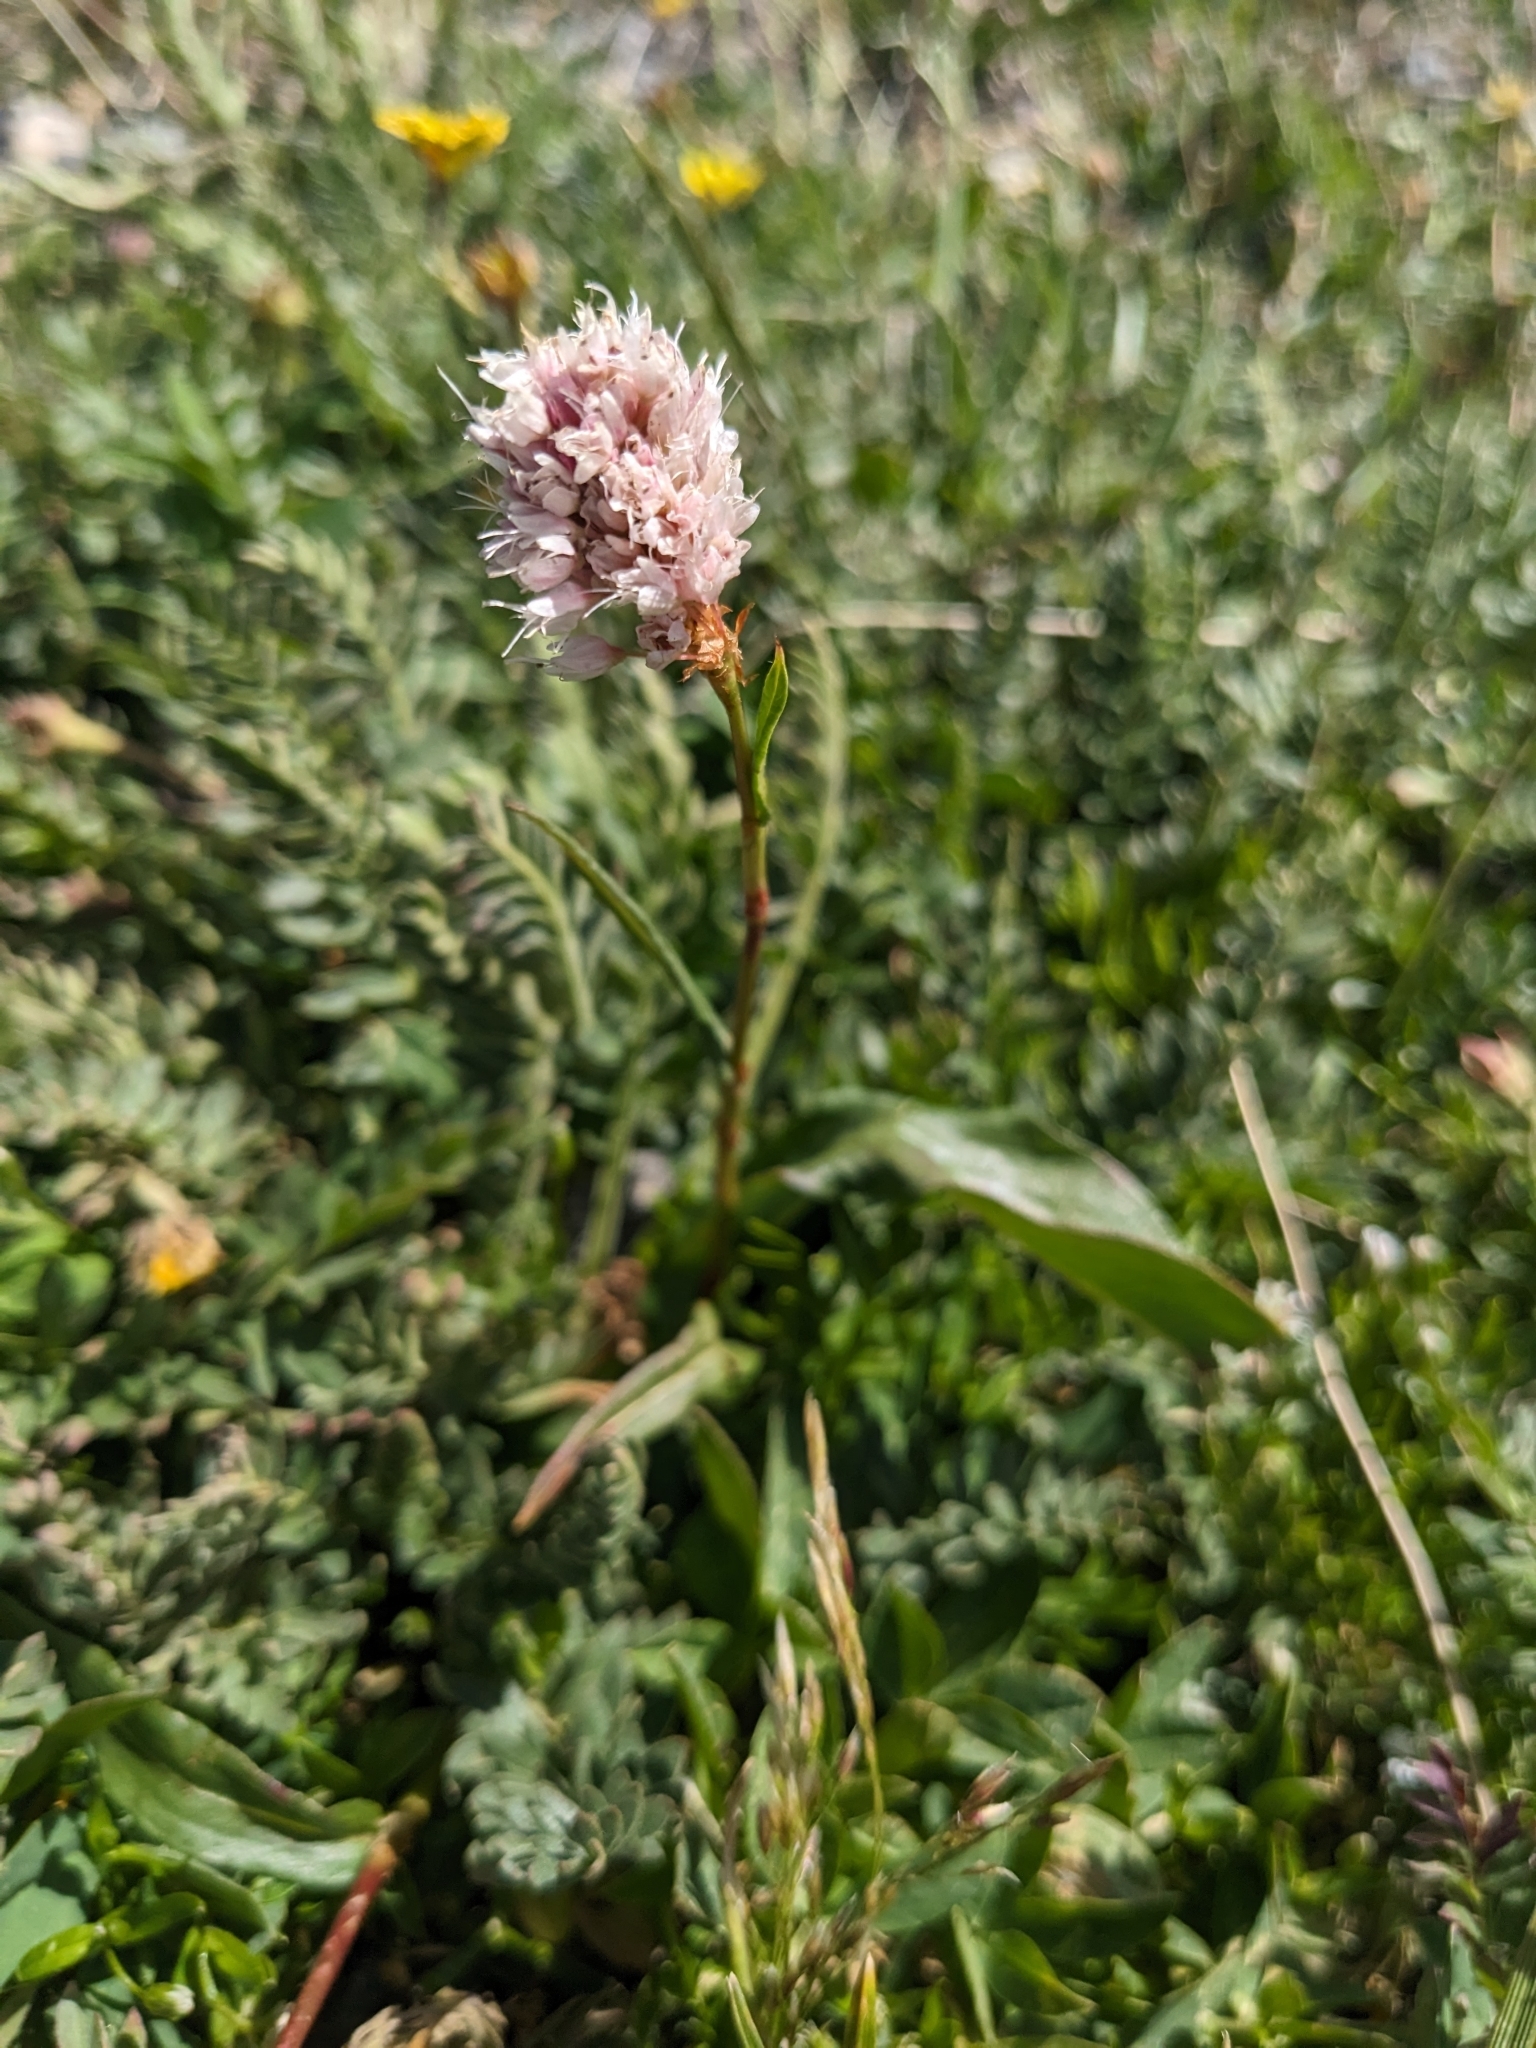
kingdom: Plantae
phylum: Tracheophyta
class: Magnoliopsida
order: Caryophyllales
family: Polygonaceae
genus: Bistorta
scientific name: Bistorta bistortoides
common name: American bistort
